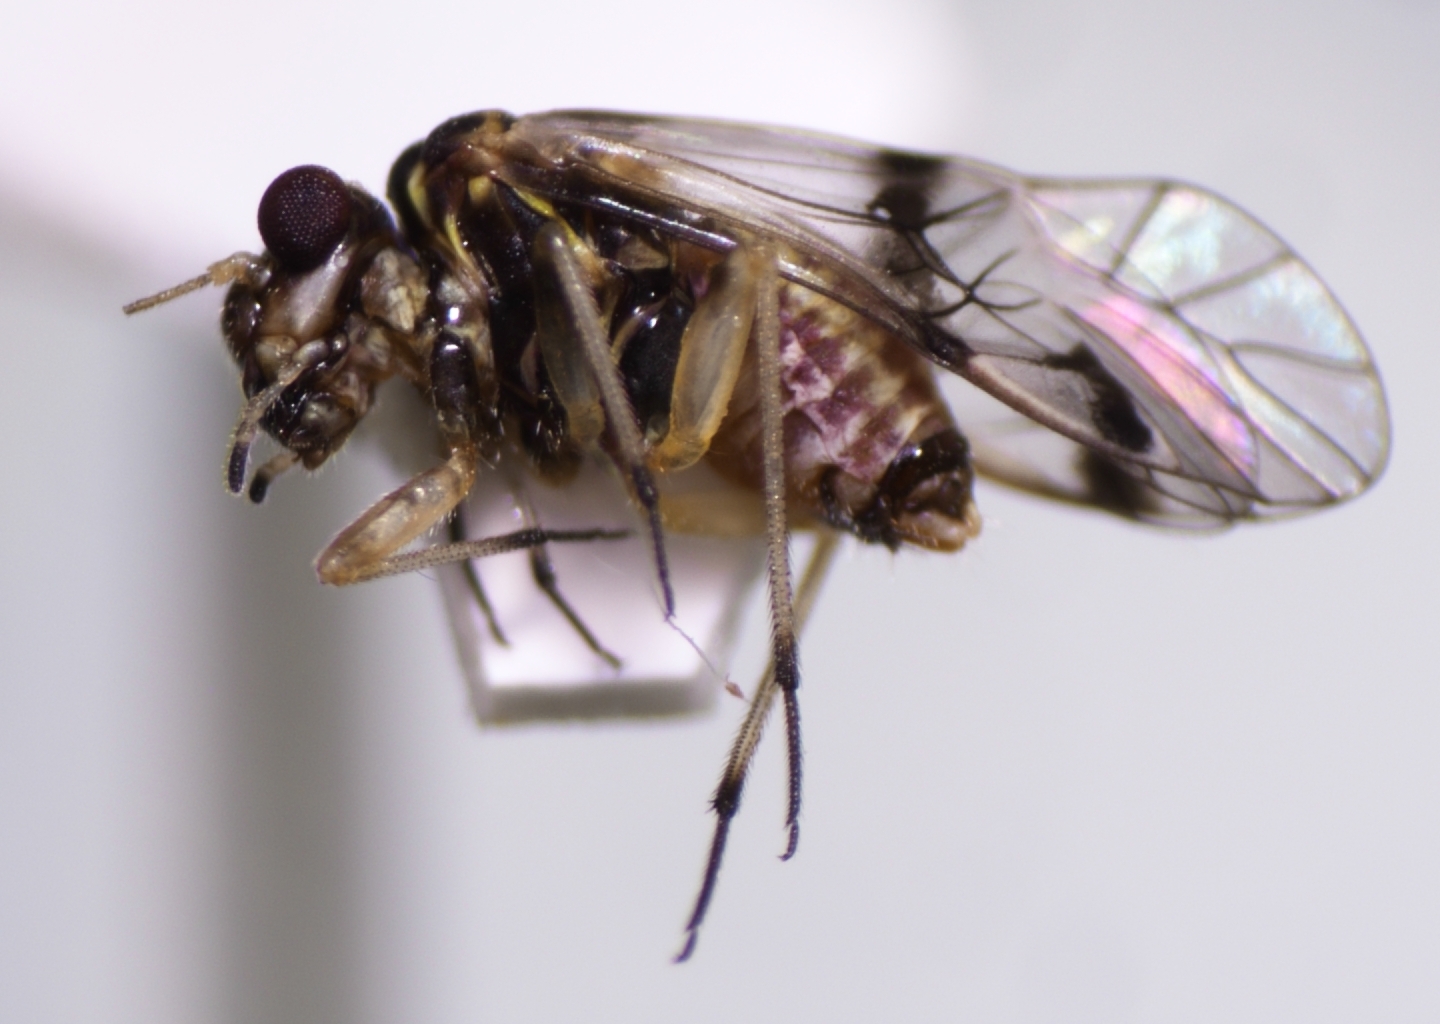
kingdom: Animalia
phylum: Arthropoda
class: Insecta
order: Psocodea
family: Psocidae
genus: Copostigma
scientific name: Copostigma vitiense
